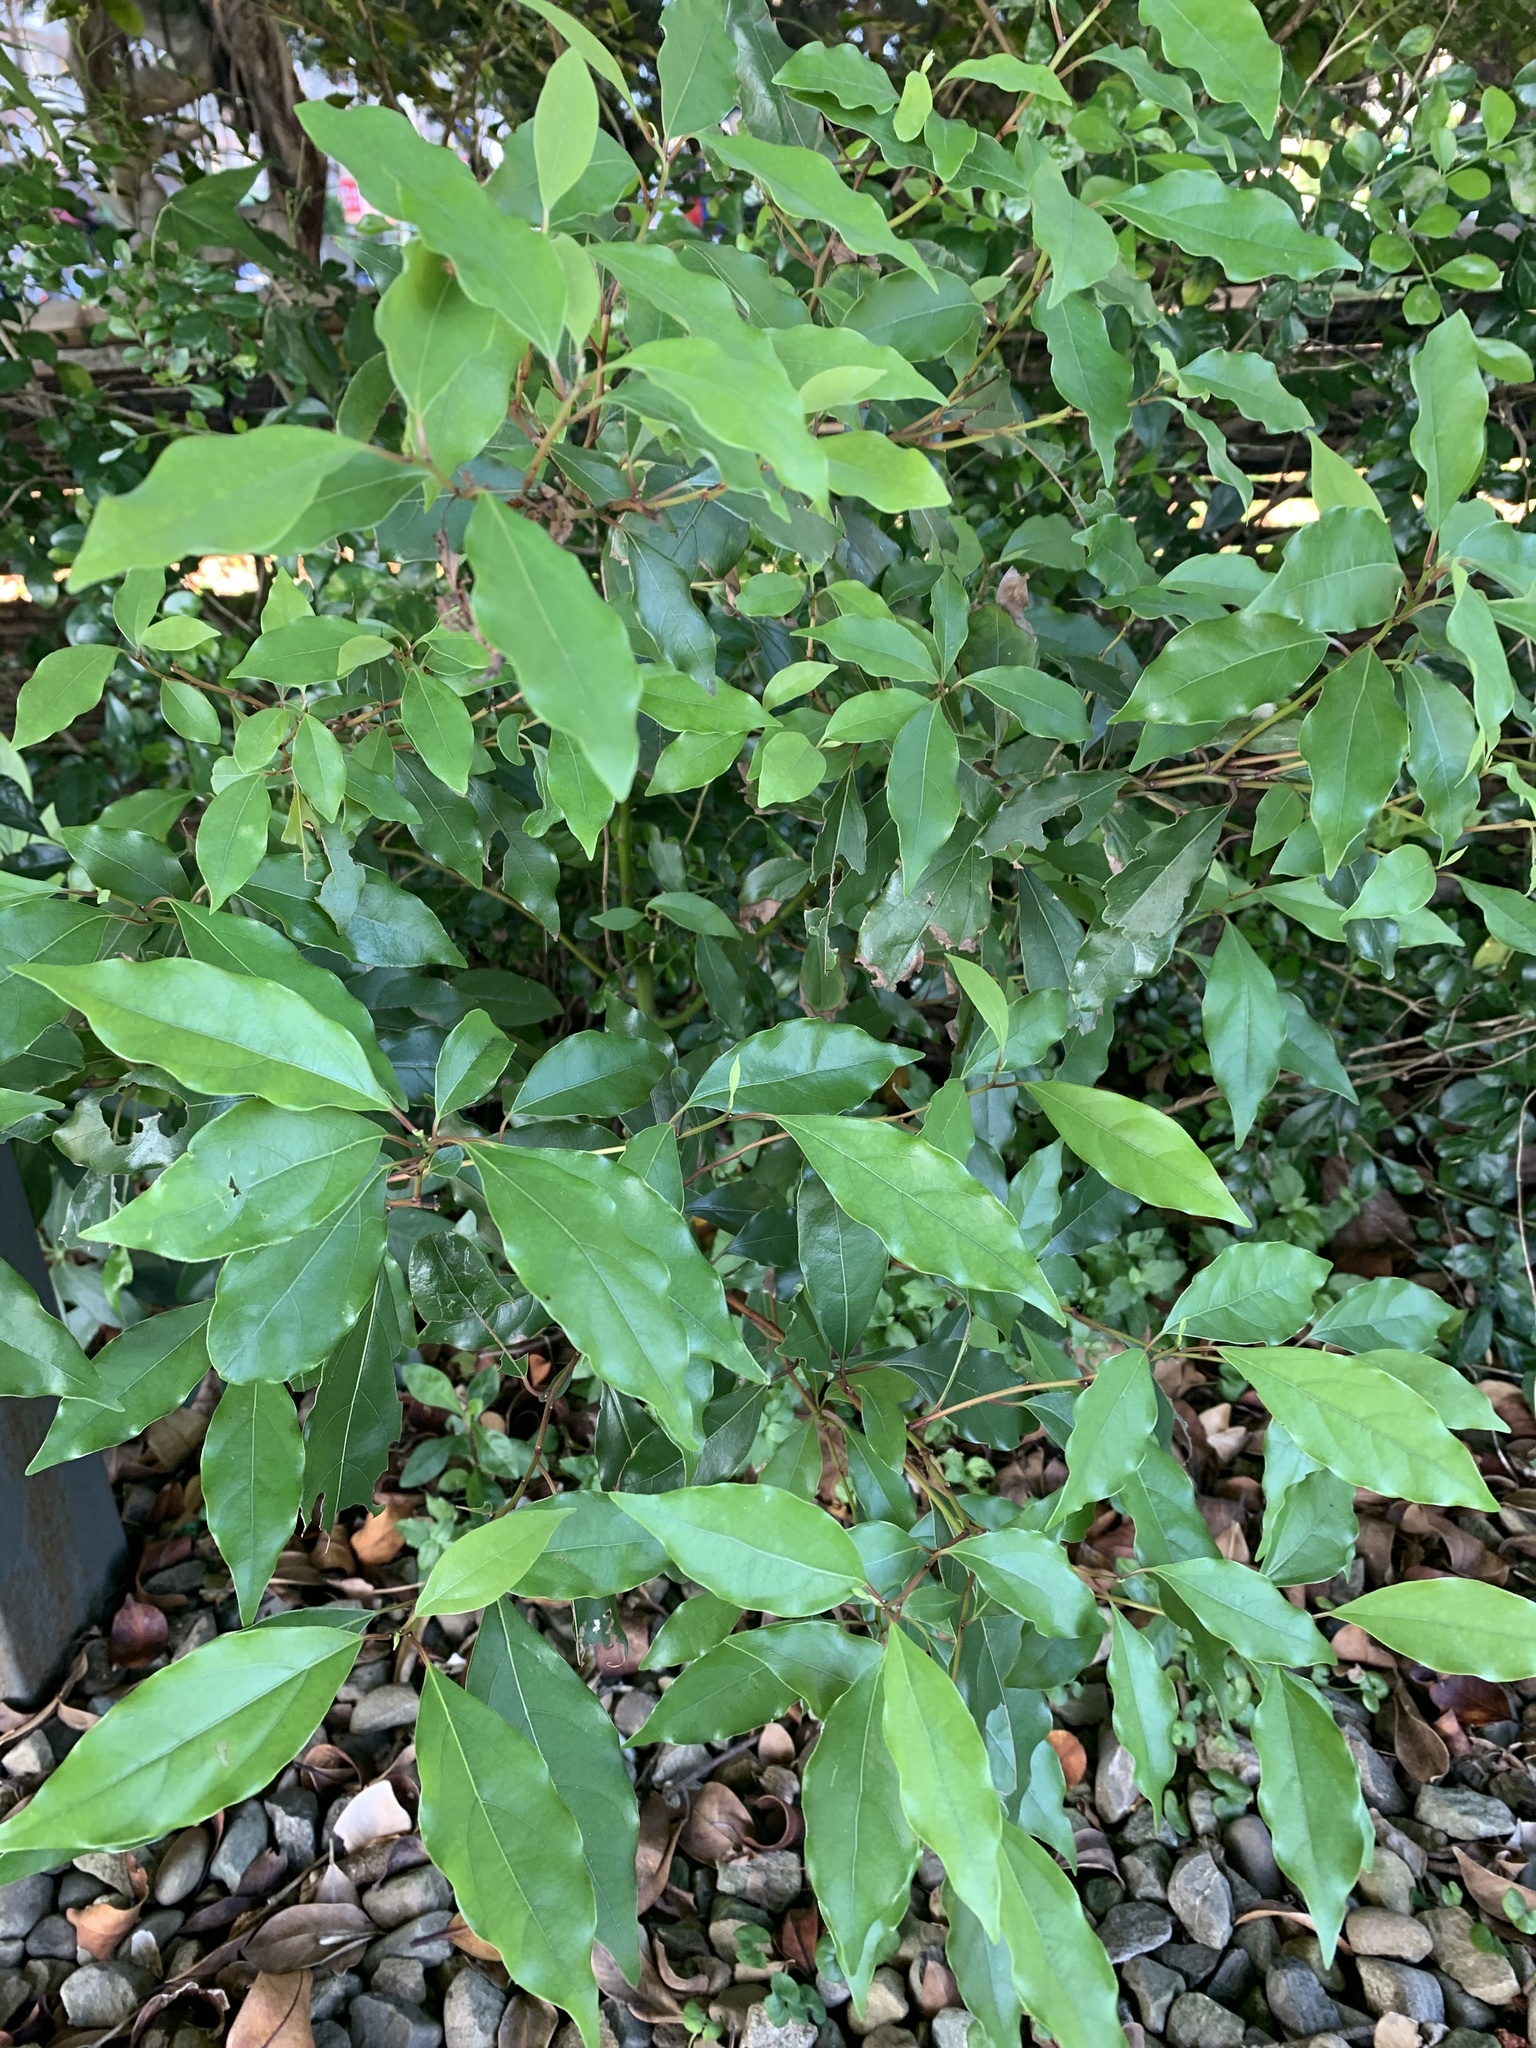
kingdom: Plantae
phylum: Tracheophyta
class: Magnoliopsida
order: Laurales
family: Lauraceae
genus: Cinnamomum
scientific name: Cinnamomum camphora
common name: Camphortree
